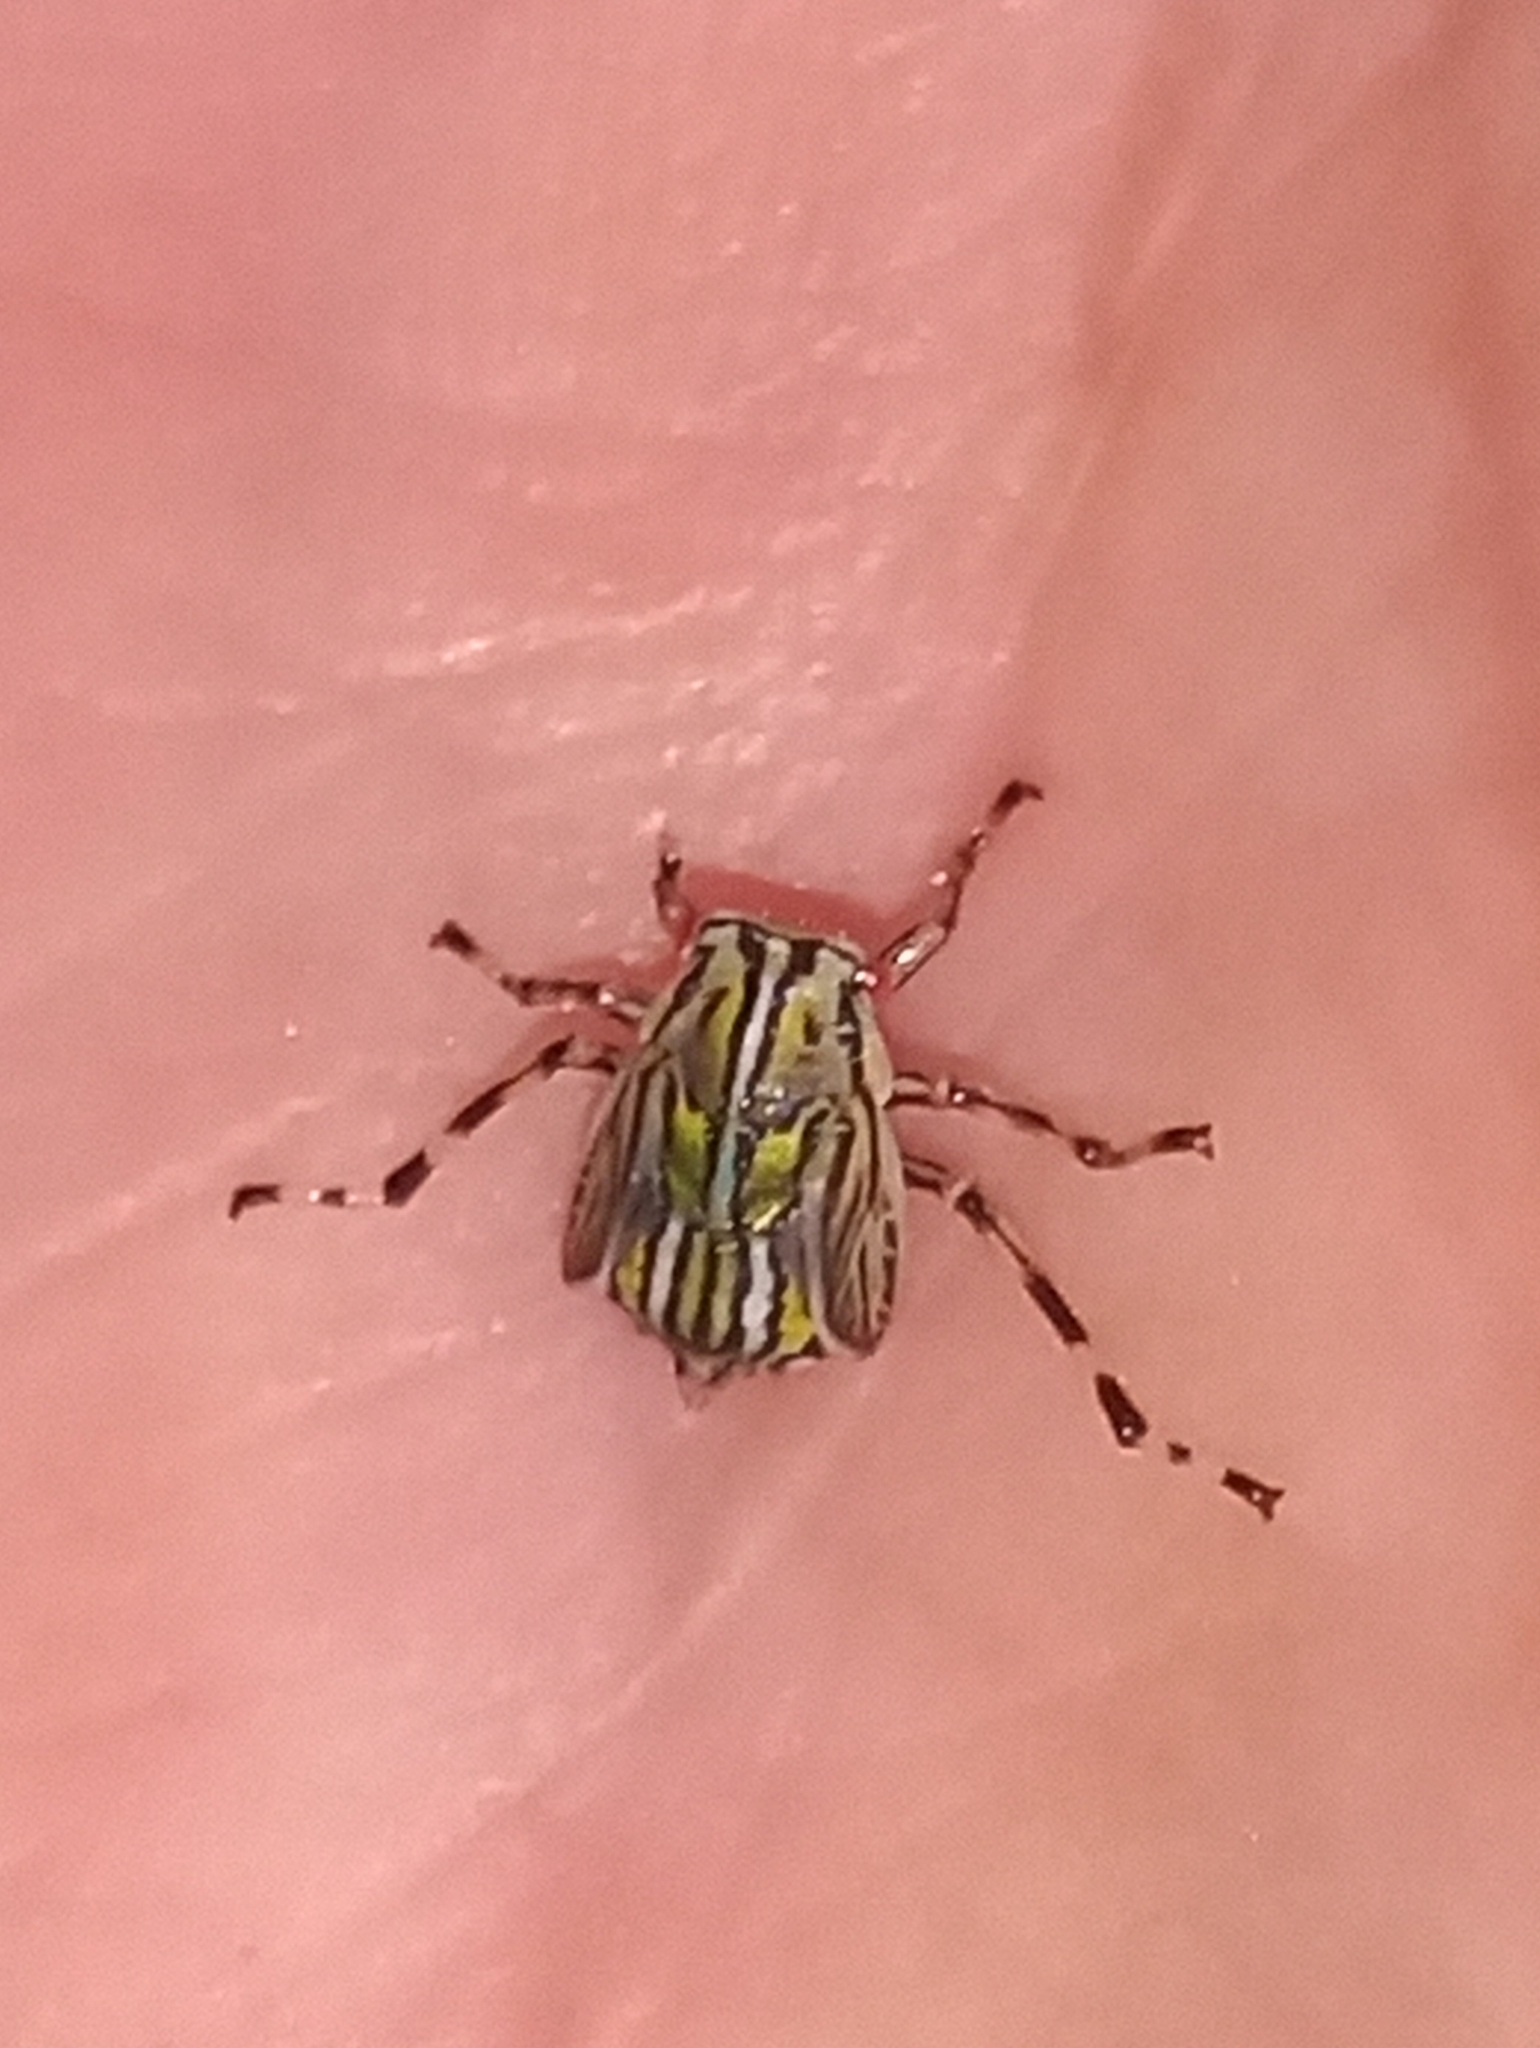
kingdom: Animalia
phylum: Arthropoda
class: Insecta
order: Hemiptera
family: Aetalionidae
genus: Aetalion
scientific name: Aetalion reticulatum
